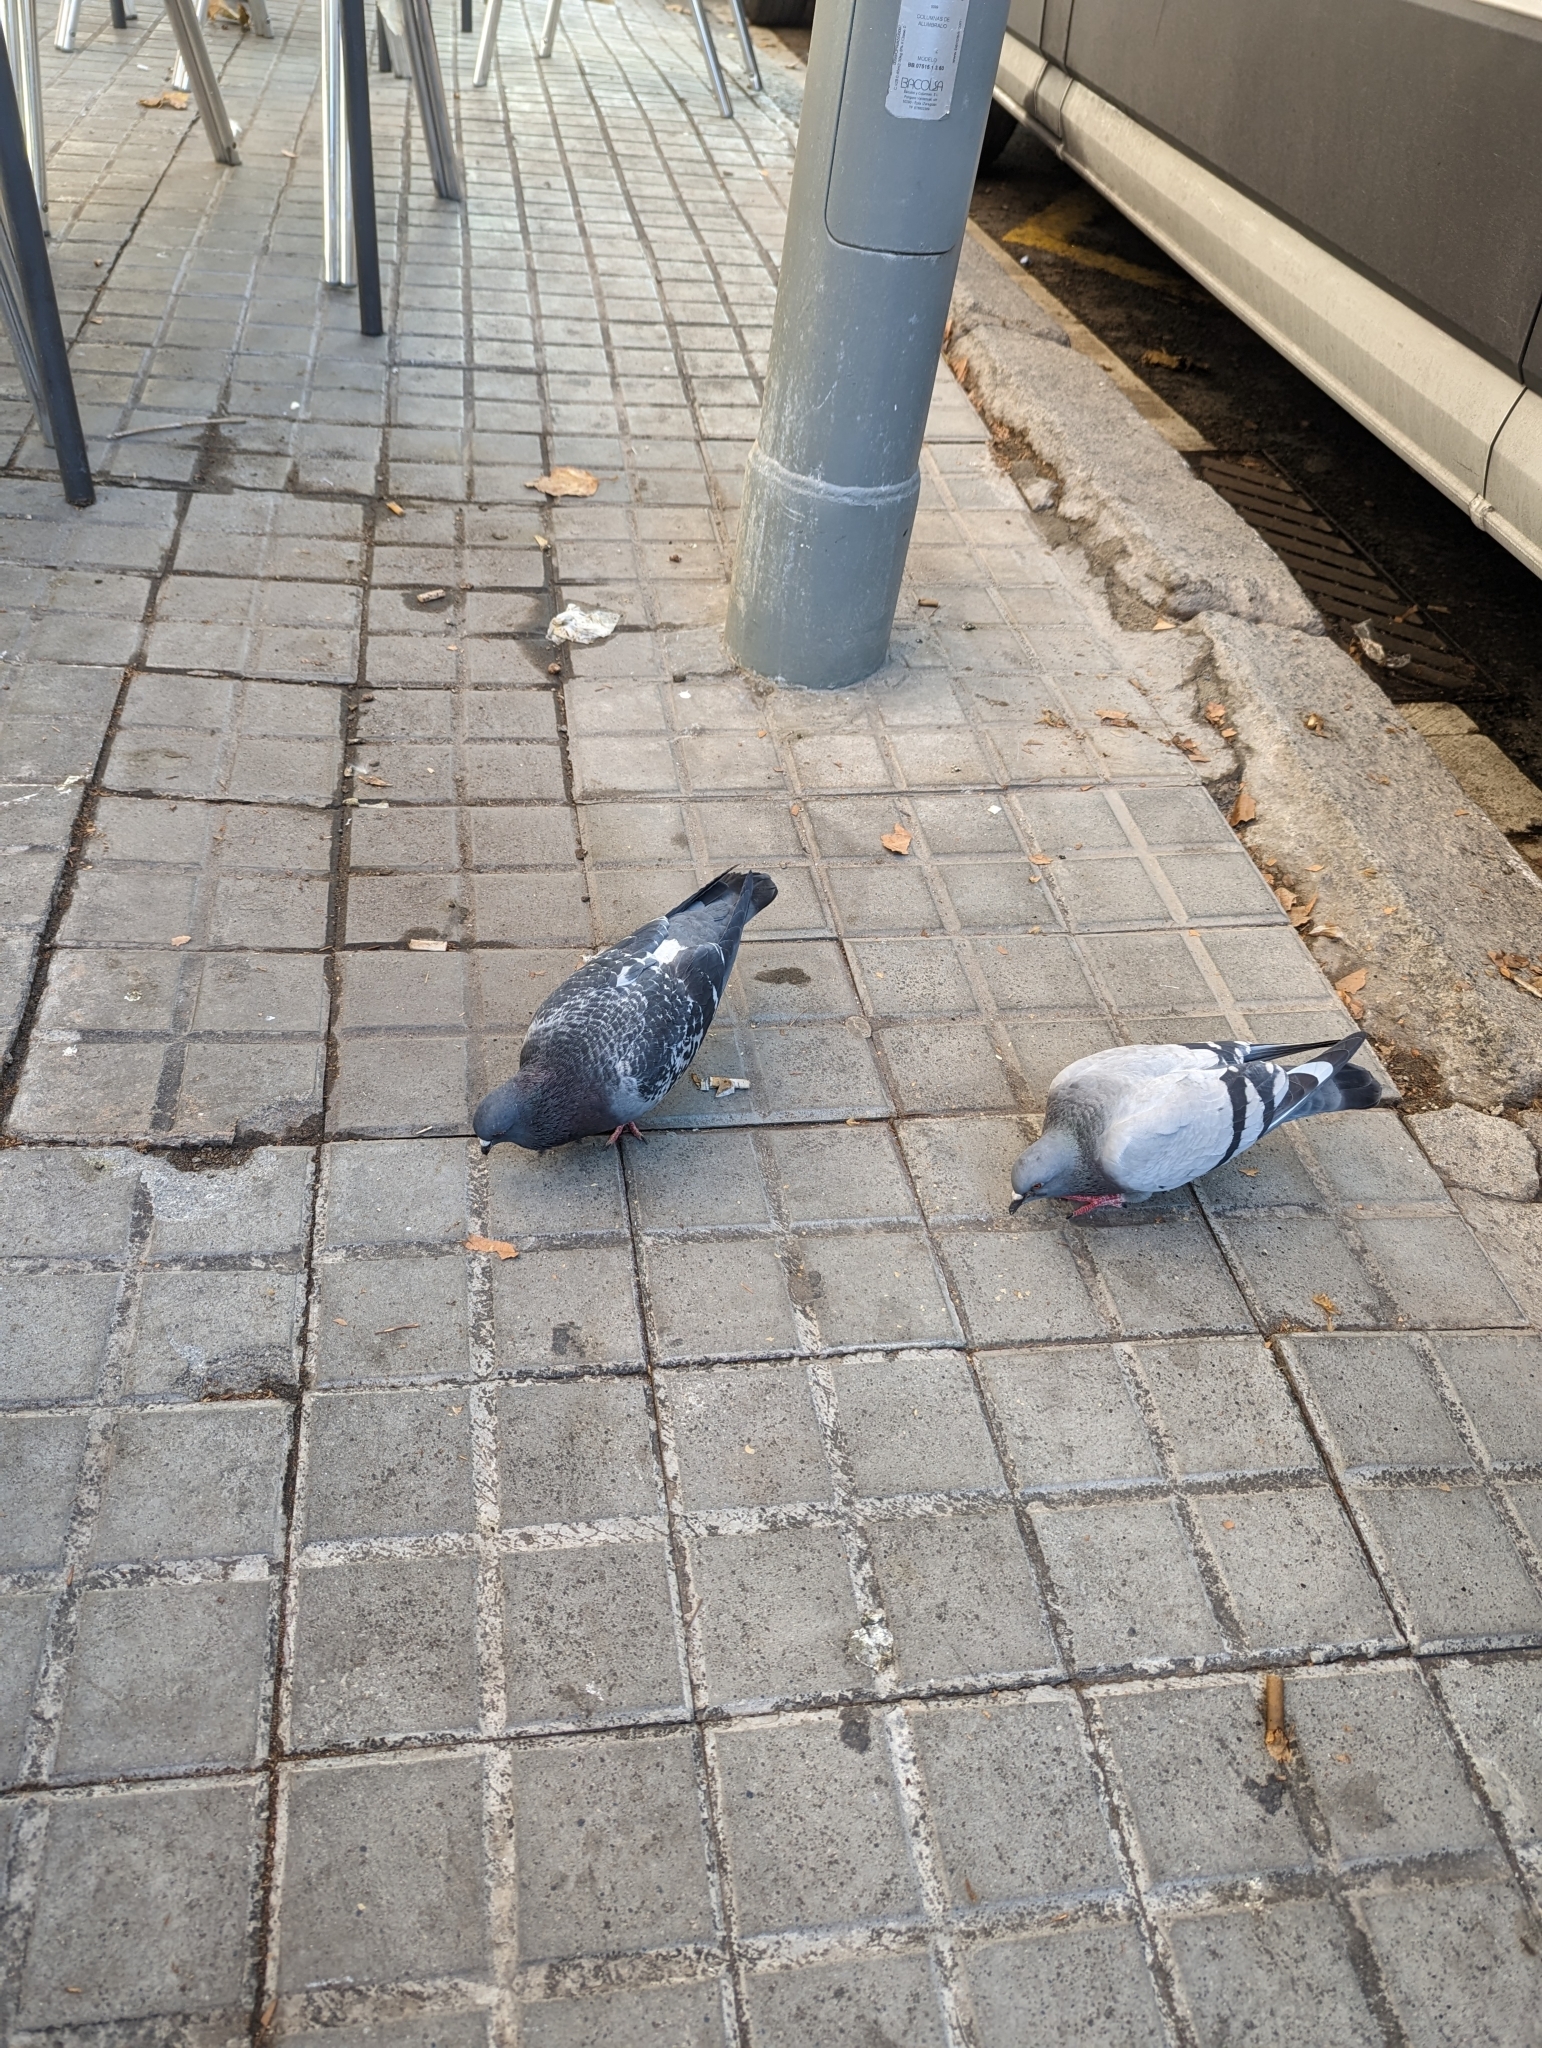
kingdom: Animalia
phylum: Chordata
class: Aves
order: Columbiformes
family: Columbidae
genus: Columba
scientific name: Columba livia
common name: Rock pigeon
